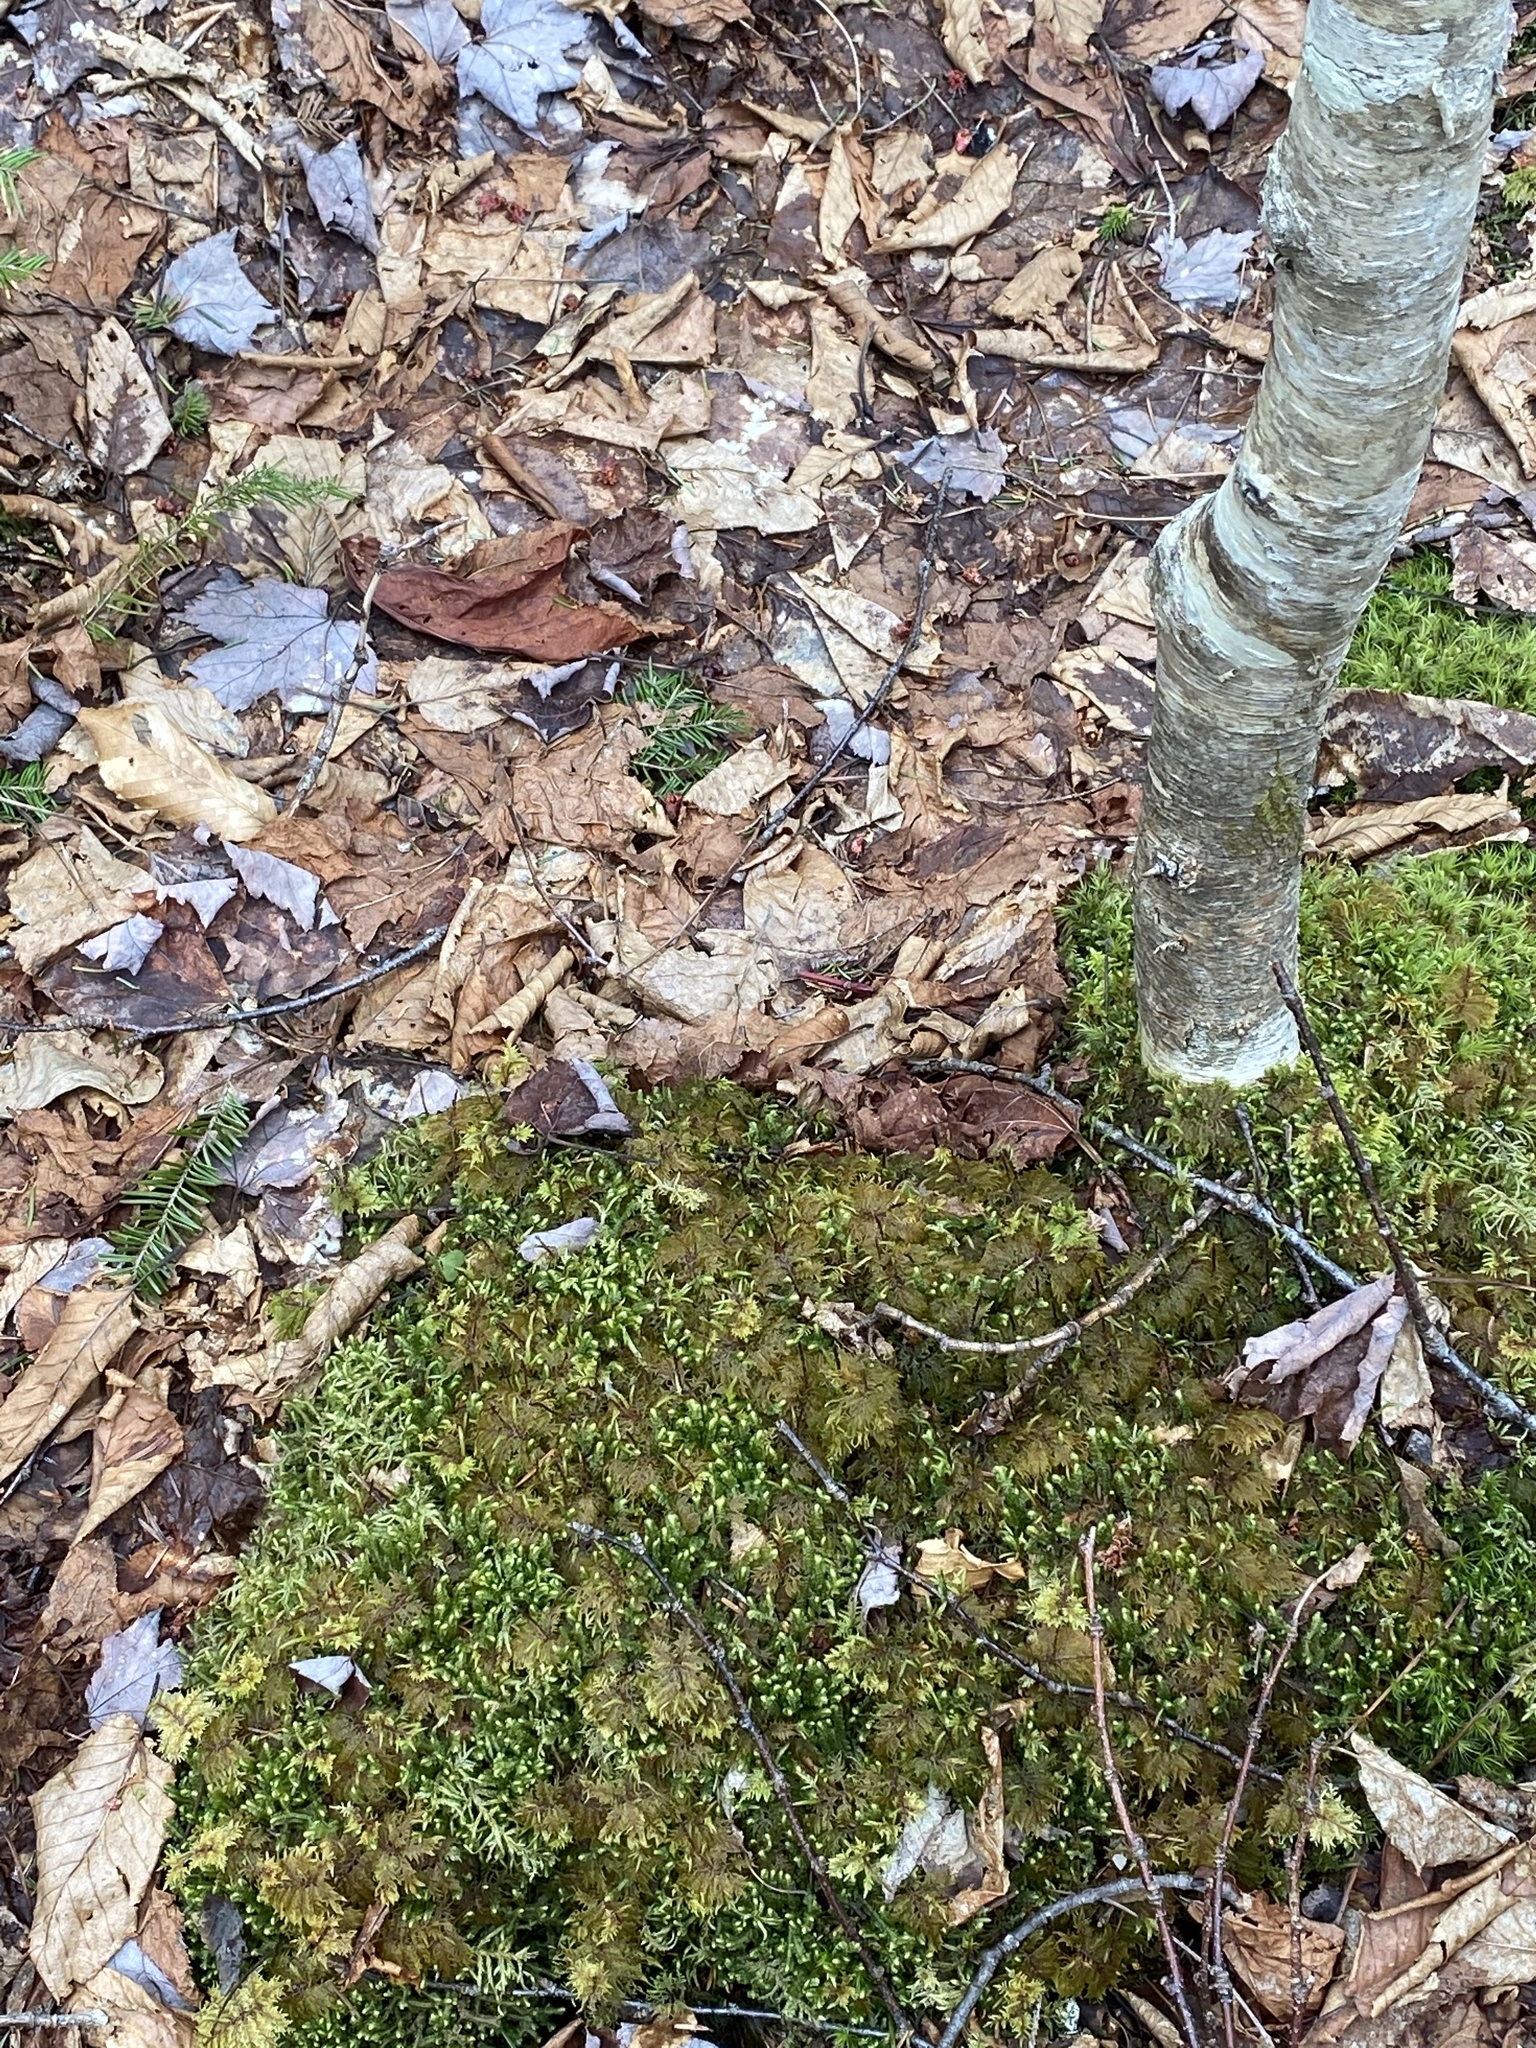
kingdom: Plantae
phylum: Bryophyta
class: Bryopsida
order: Hypnales
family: Hylocomiaceae
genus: Hylocomium
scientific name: Hylocomium splendens
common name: Stairstep moss
